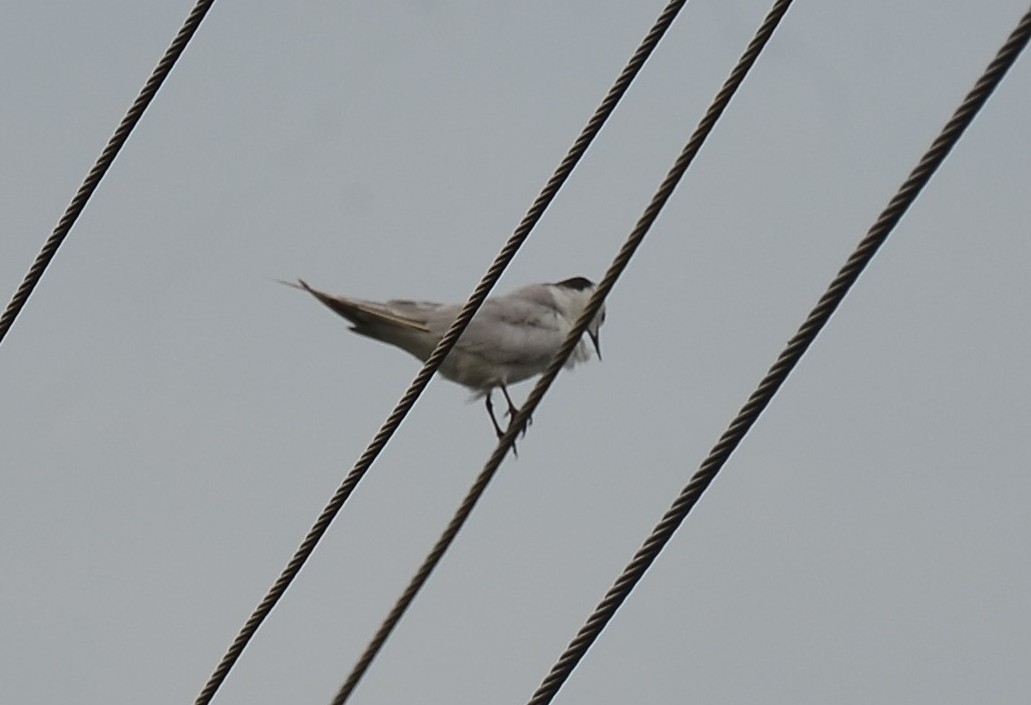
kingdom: Animalia
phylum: Chordata
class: Aves
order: Charadriiformes
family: Laridae
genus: Chlidonias
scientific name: Chlidonias hybrida
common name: Whiskered tern
